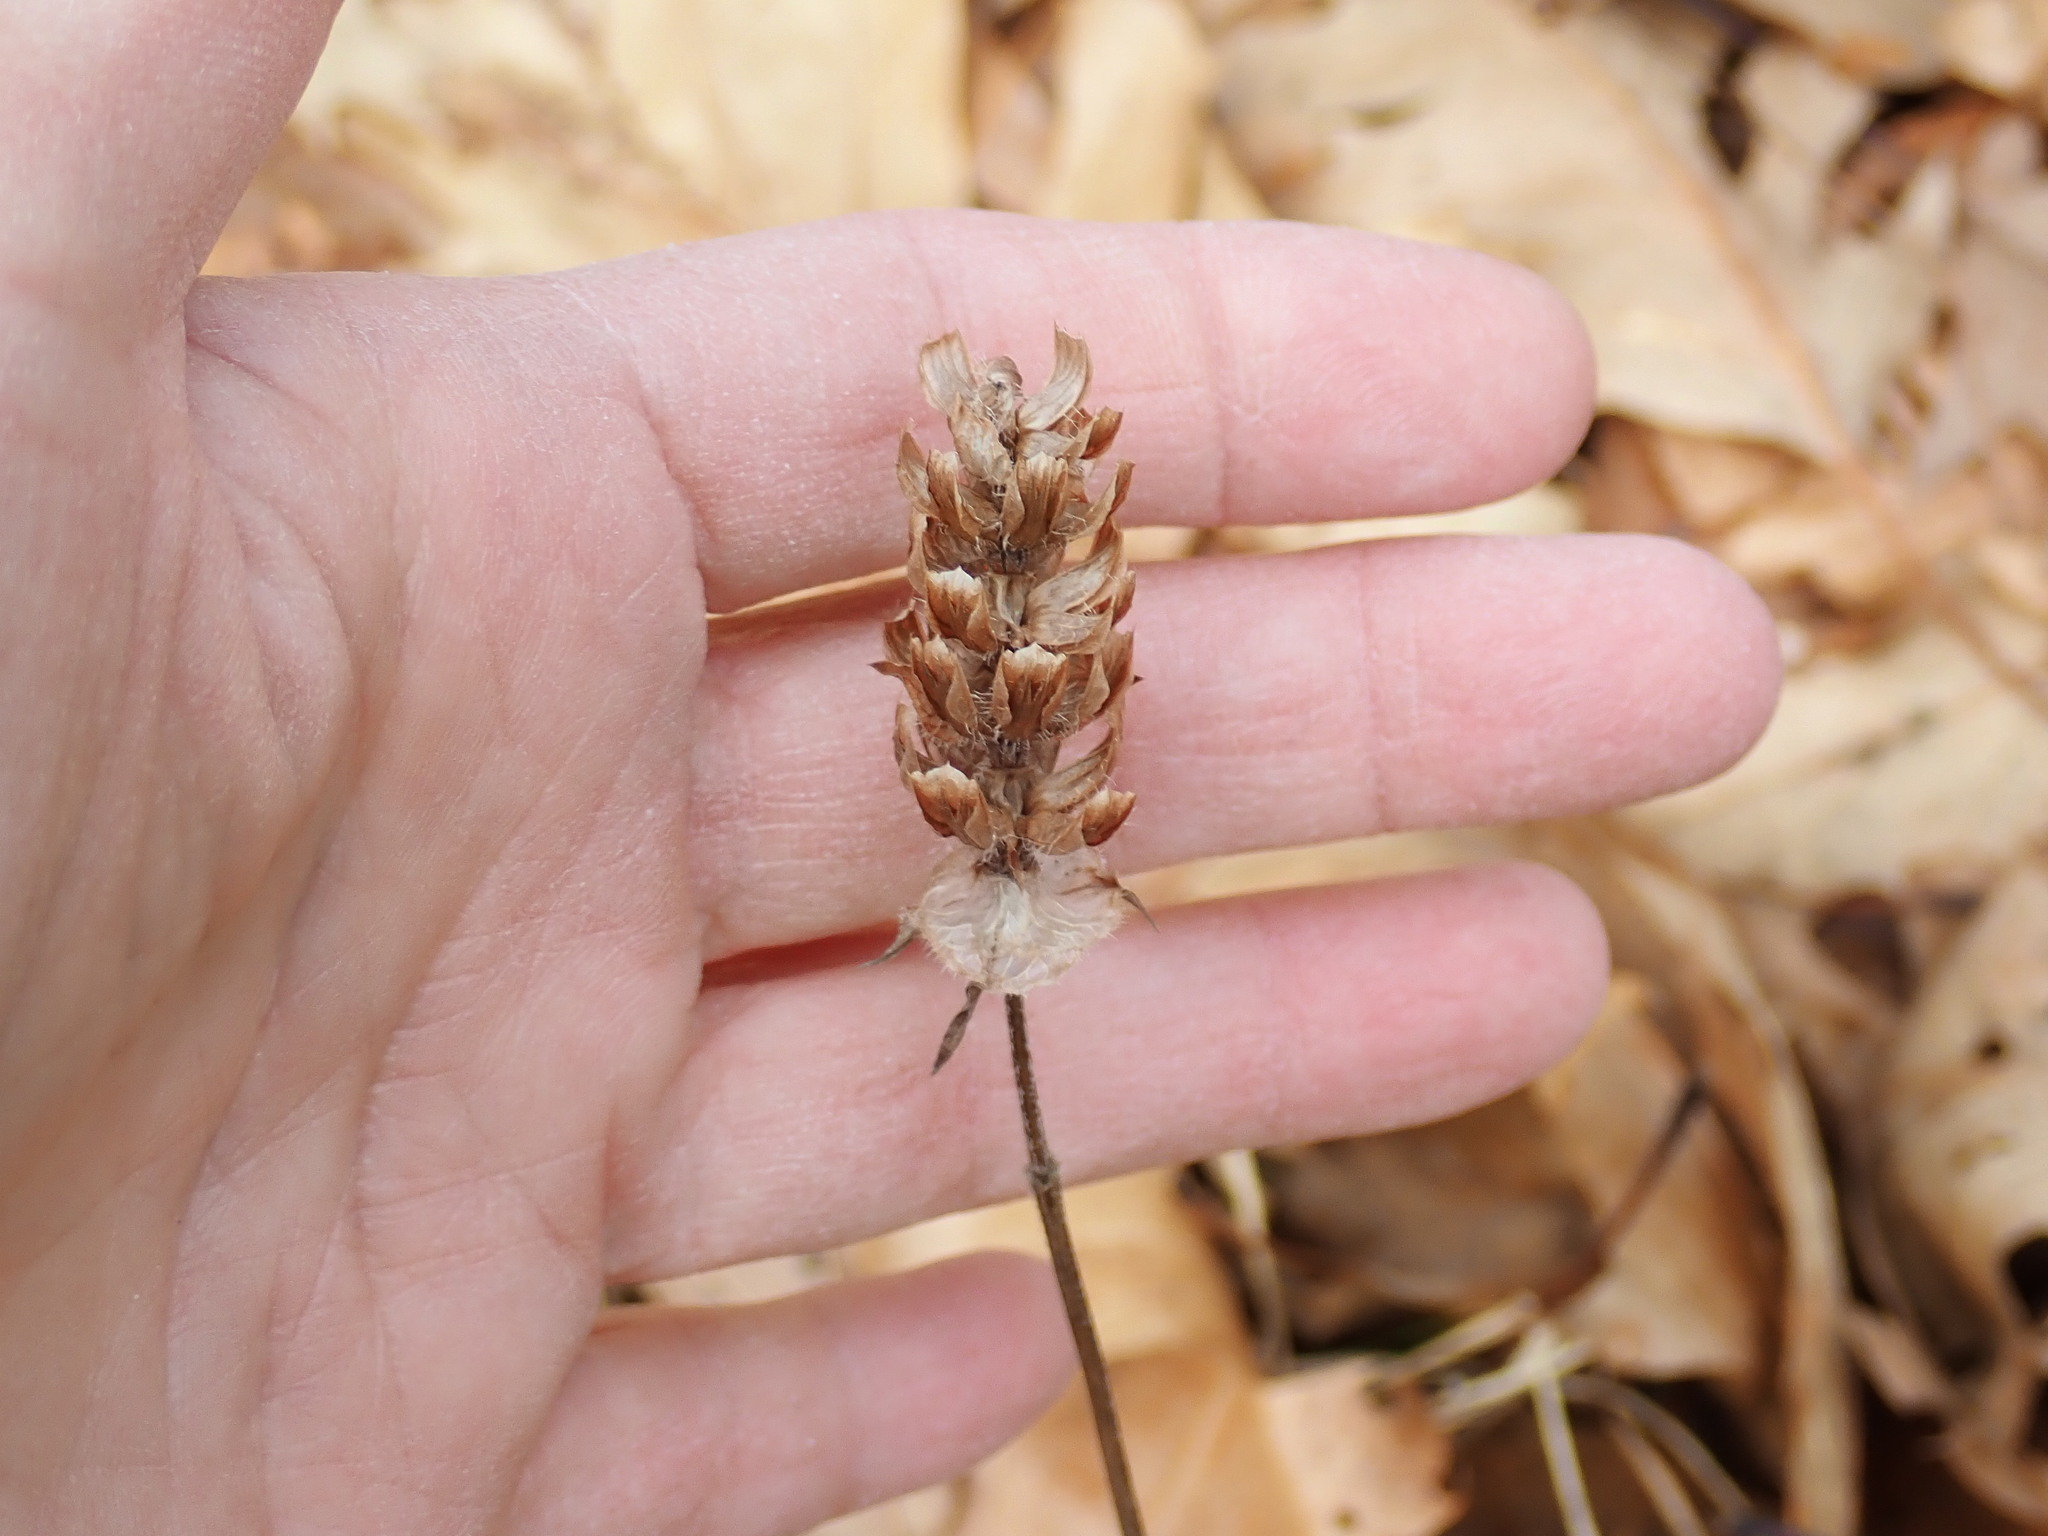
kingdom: Plantae
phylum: Tracheophyta
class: Magnoliopsida
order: Lamiales
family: Lamiaceae
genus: Prunella
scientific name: Prunella vulgaris
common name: Heal-all
